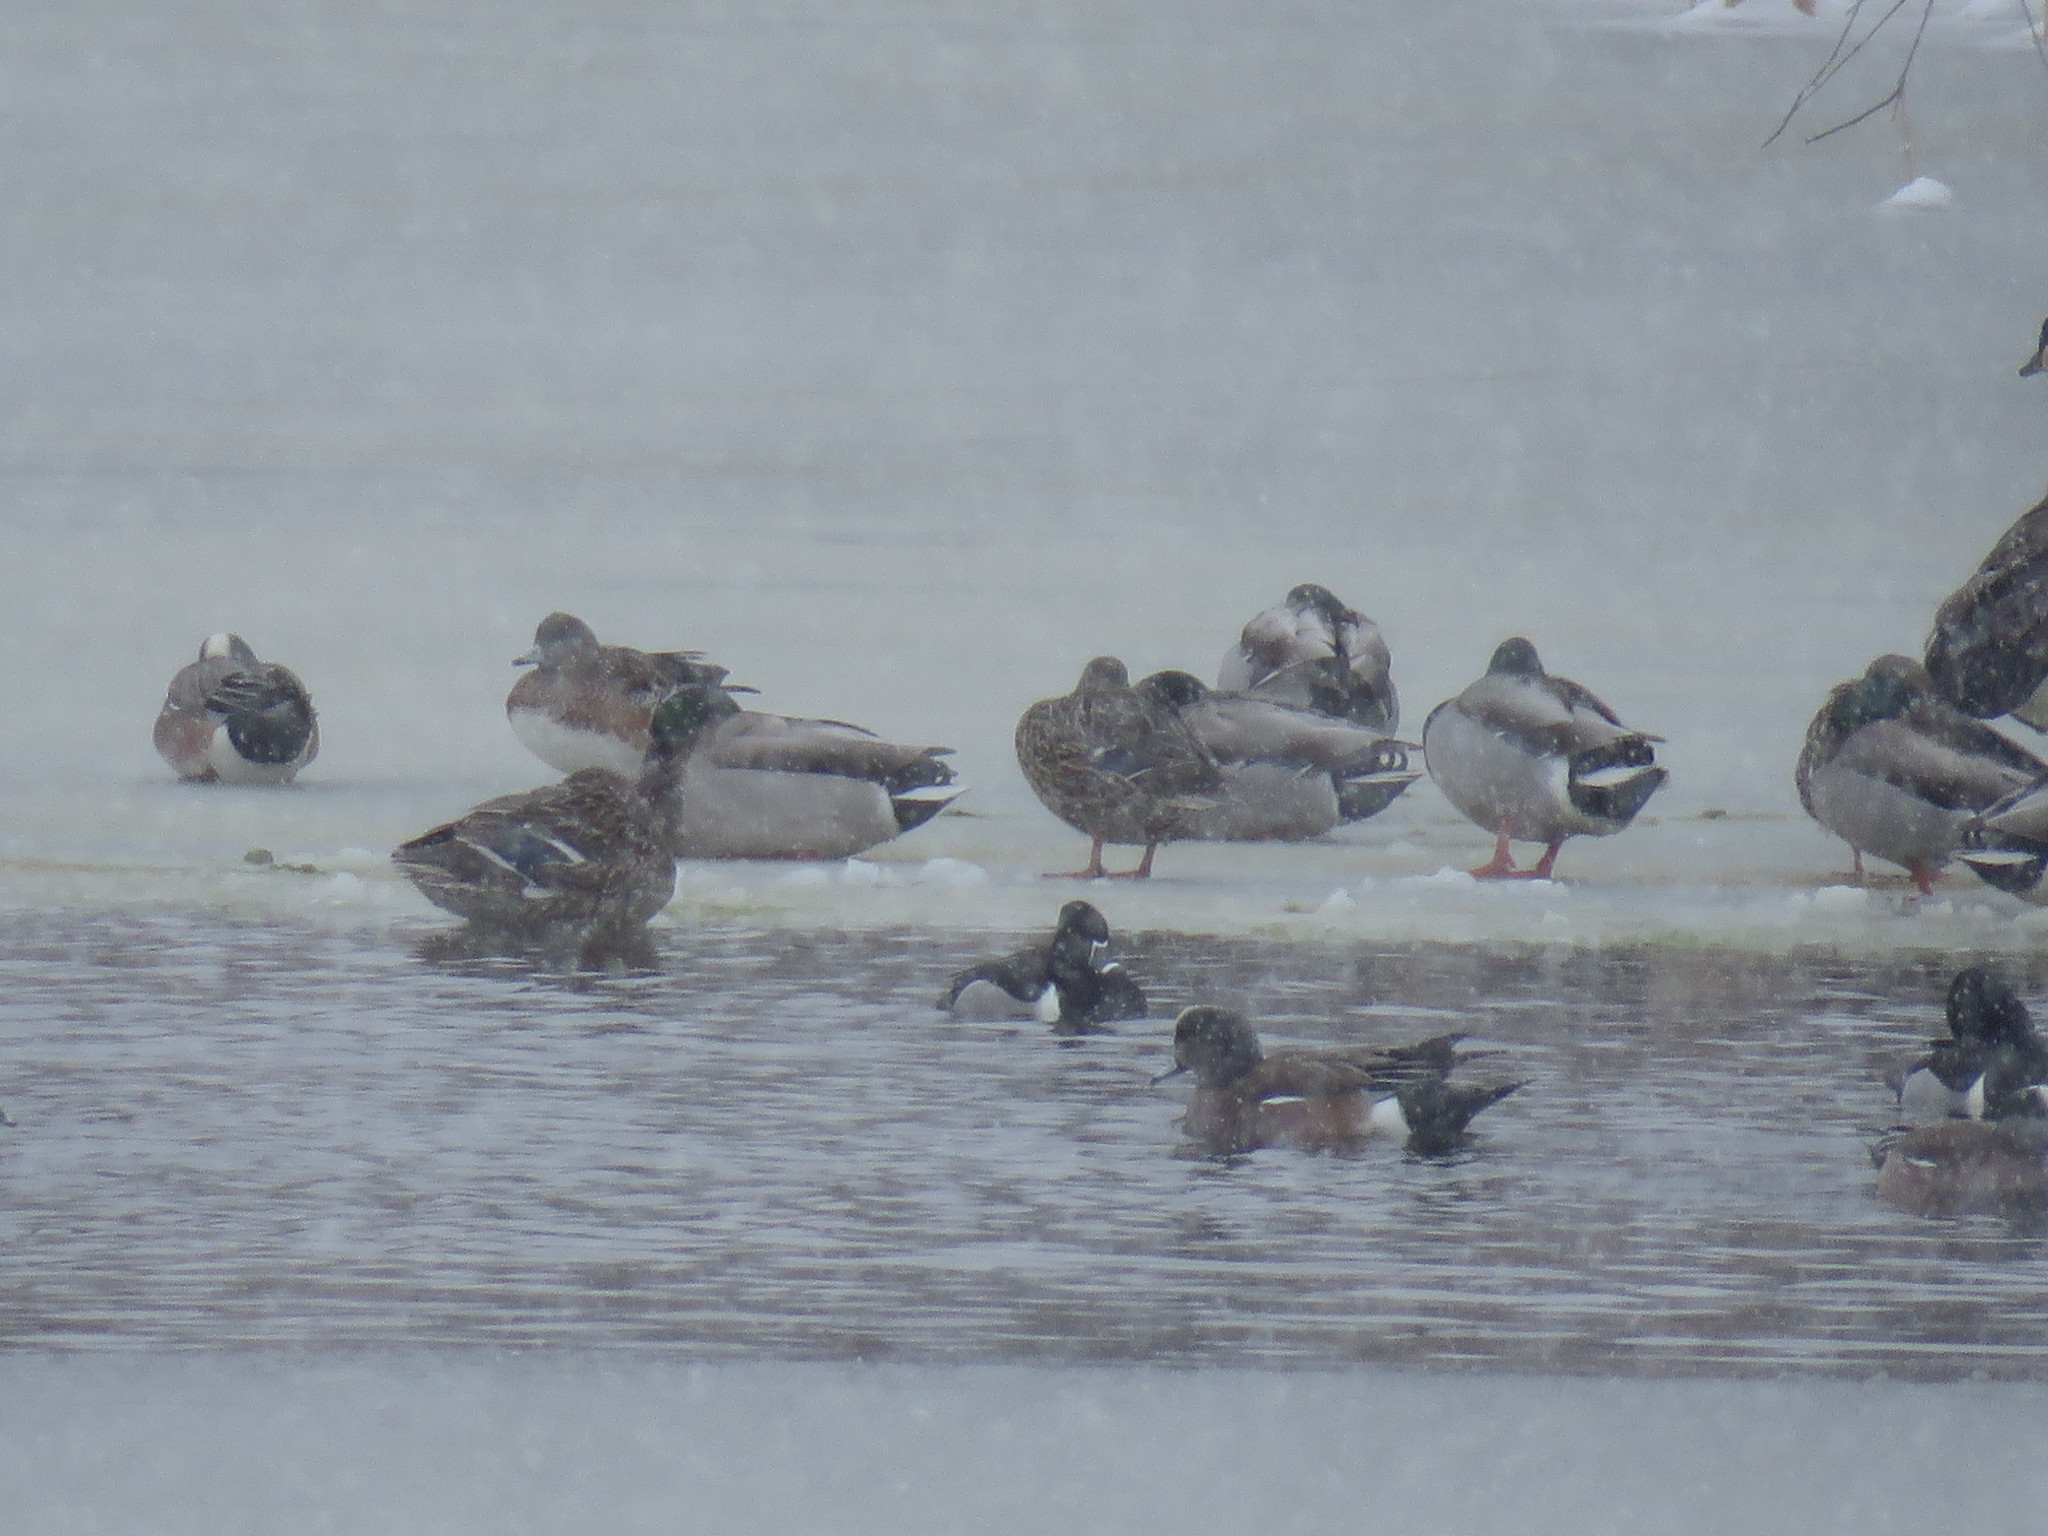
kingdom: Animalia
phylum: Chordata
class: Aves
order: Anseriformes
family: Anatidae
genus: Mareca
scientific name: Mareca americana
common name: American wigeon
